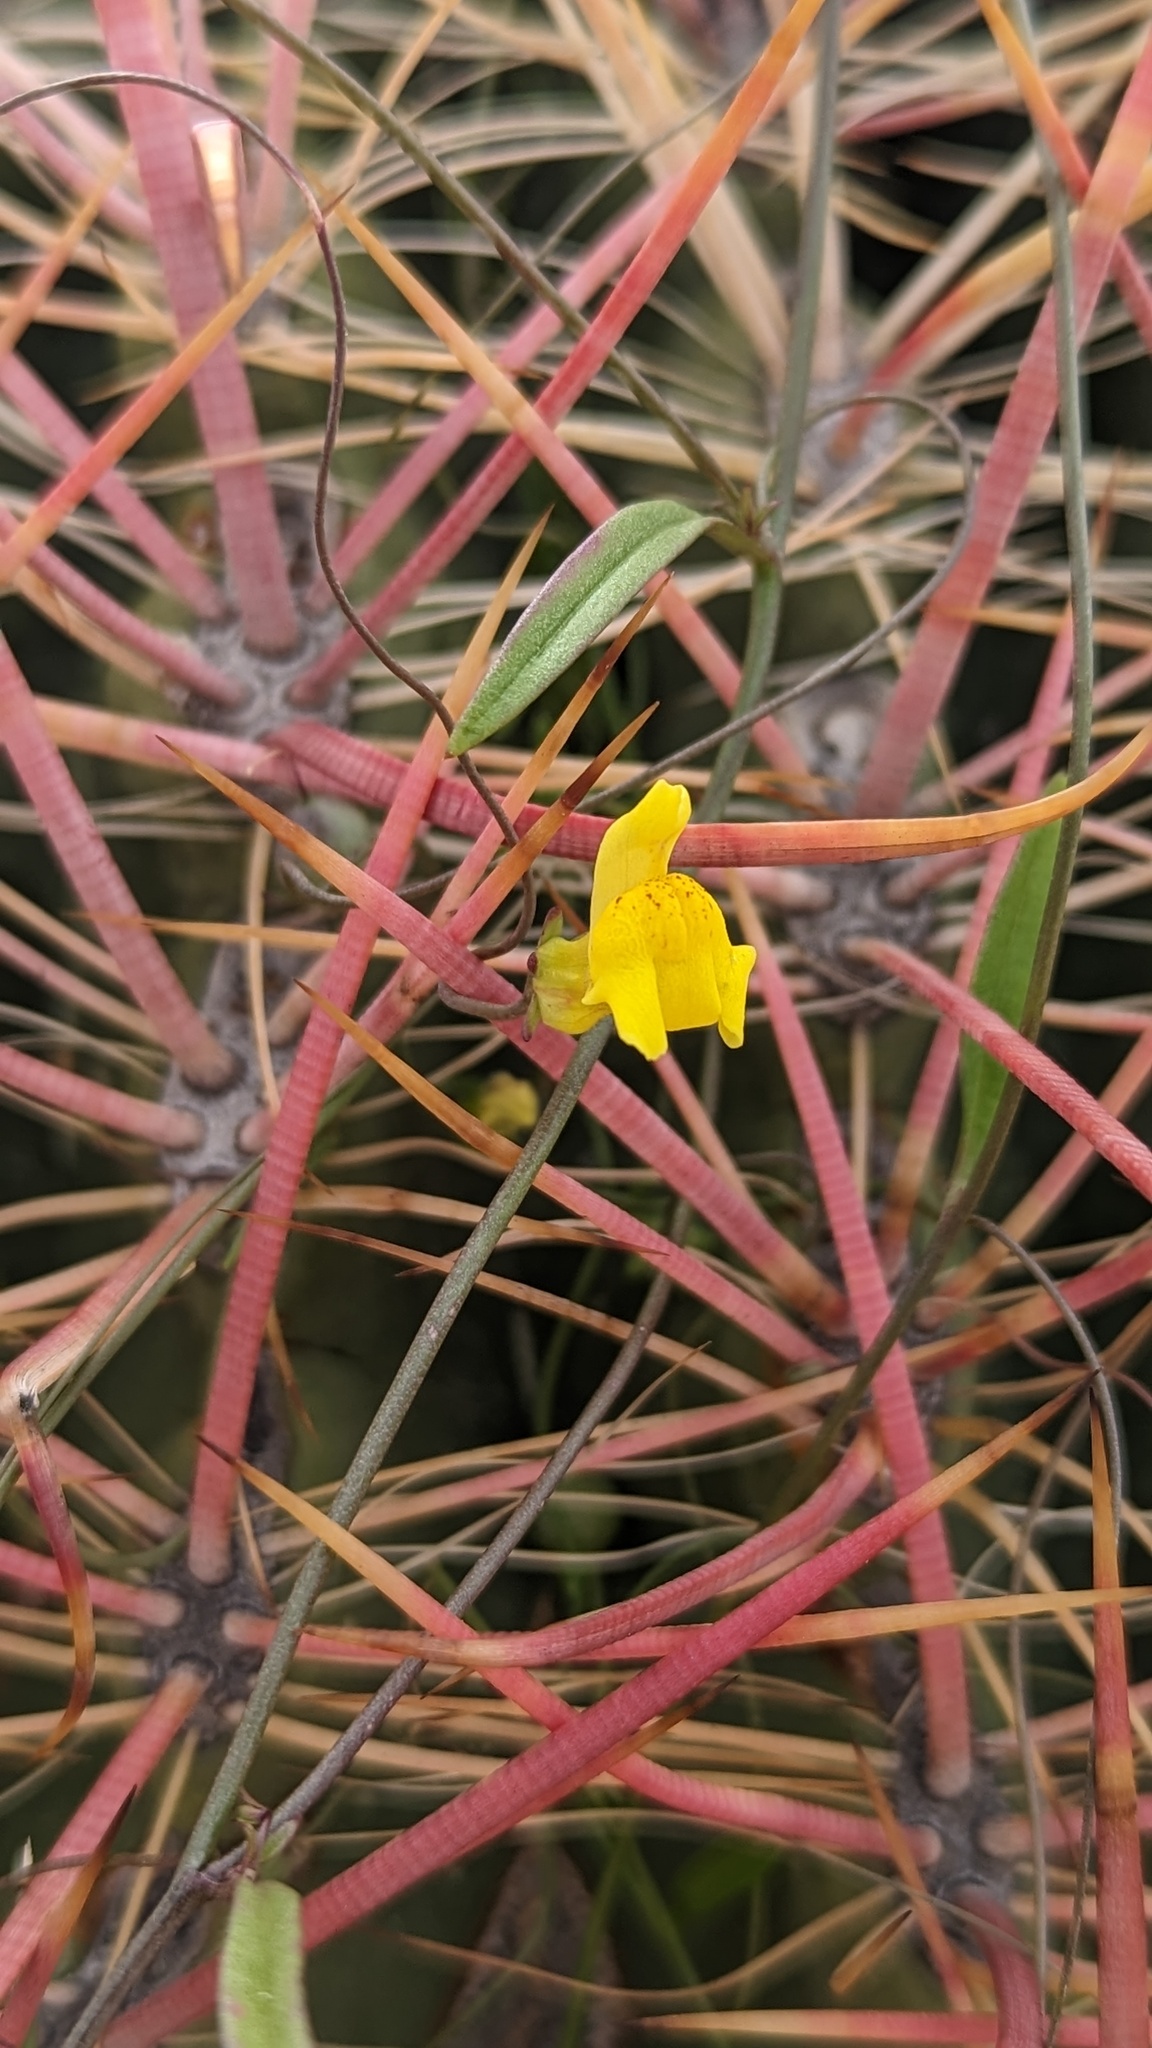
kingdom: Plantae
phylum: Tracheophyta
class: Magnoliopsida
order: Lamiales
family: Plantaginaceae
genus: Neogaerrhinum
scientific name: Neogaerrhinum filipes
